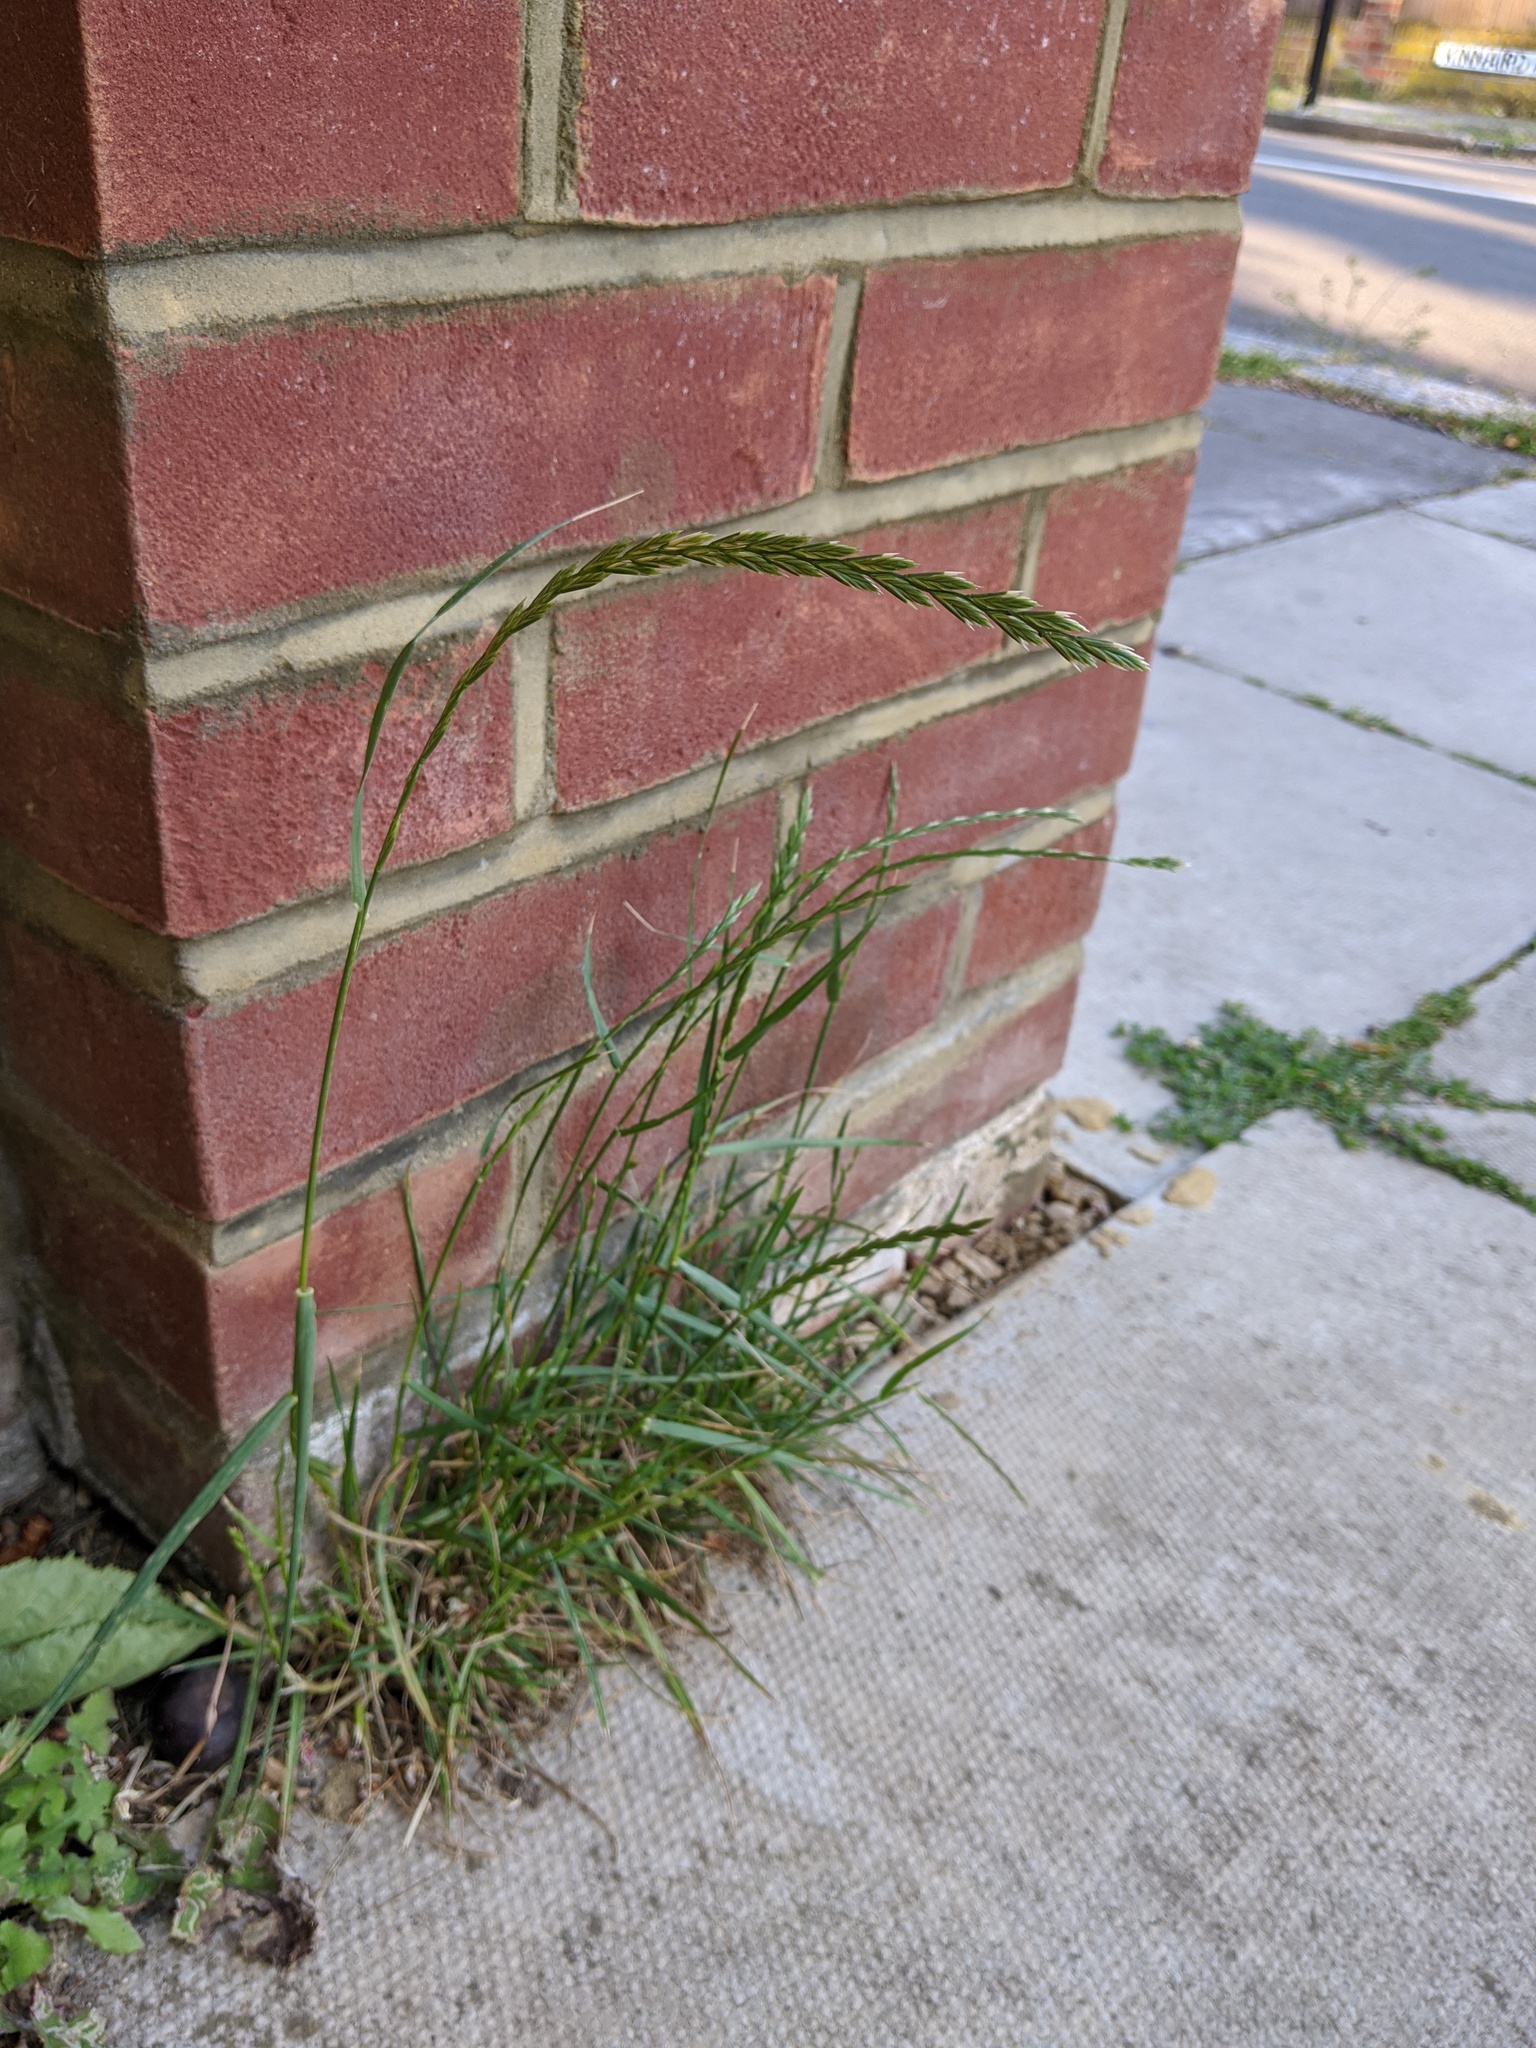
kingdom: Plantae
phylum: Tracheophyta
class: Liliopsida
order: Poales
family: Poaceae
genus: Lolium
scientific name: Lolium perenne
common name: Perennial ryegrass
